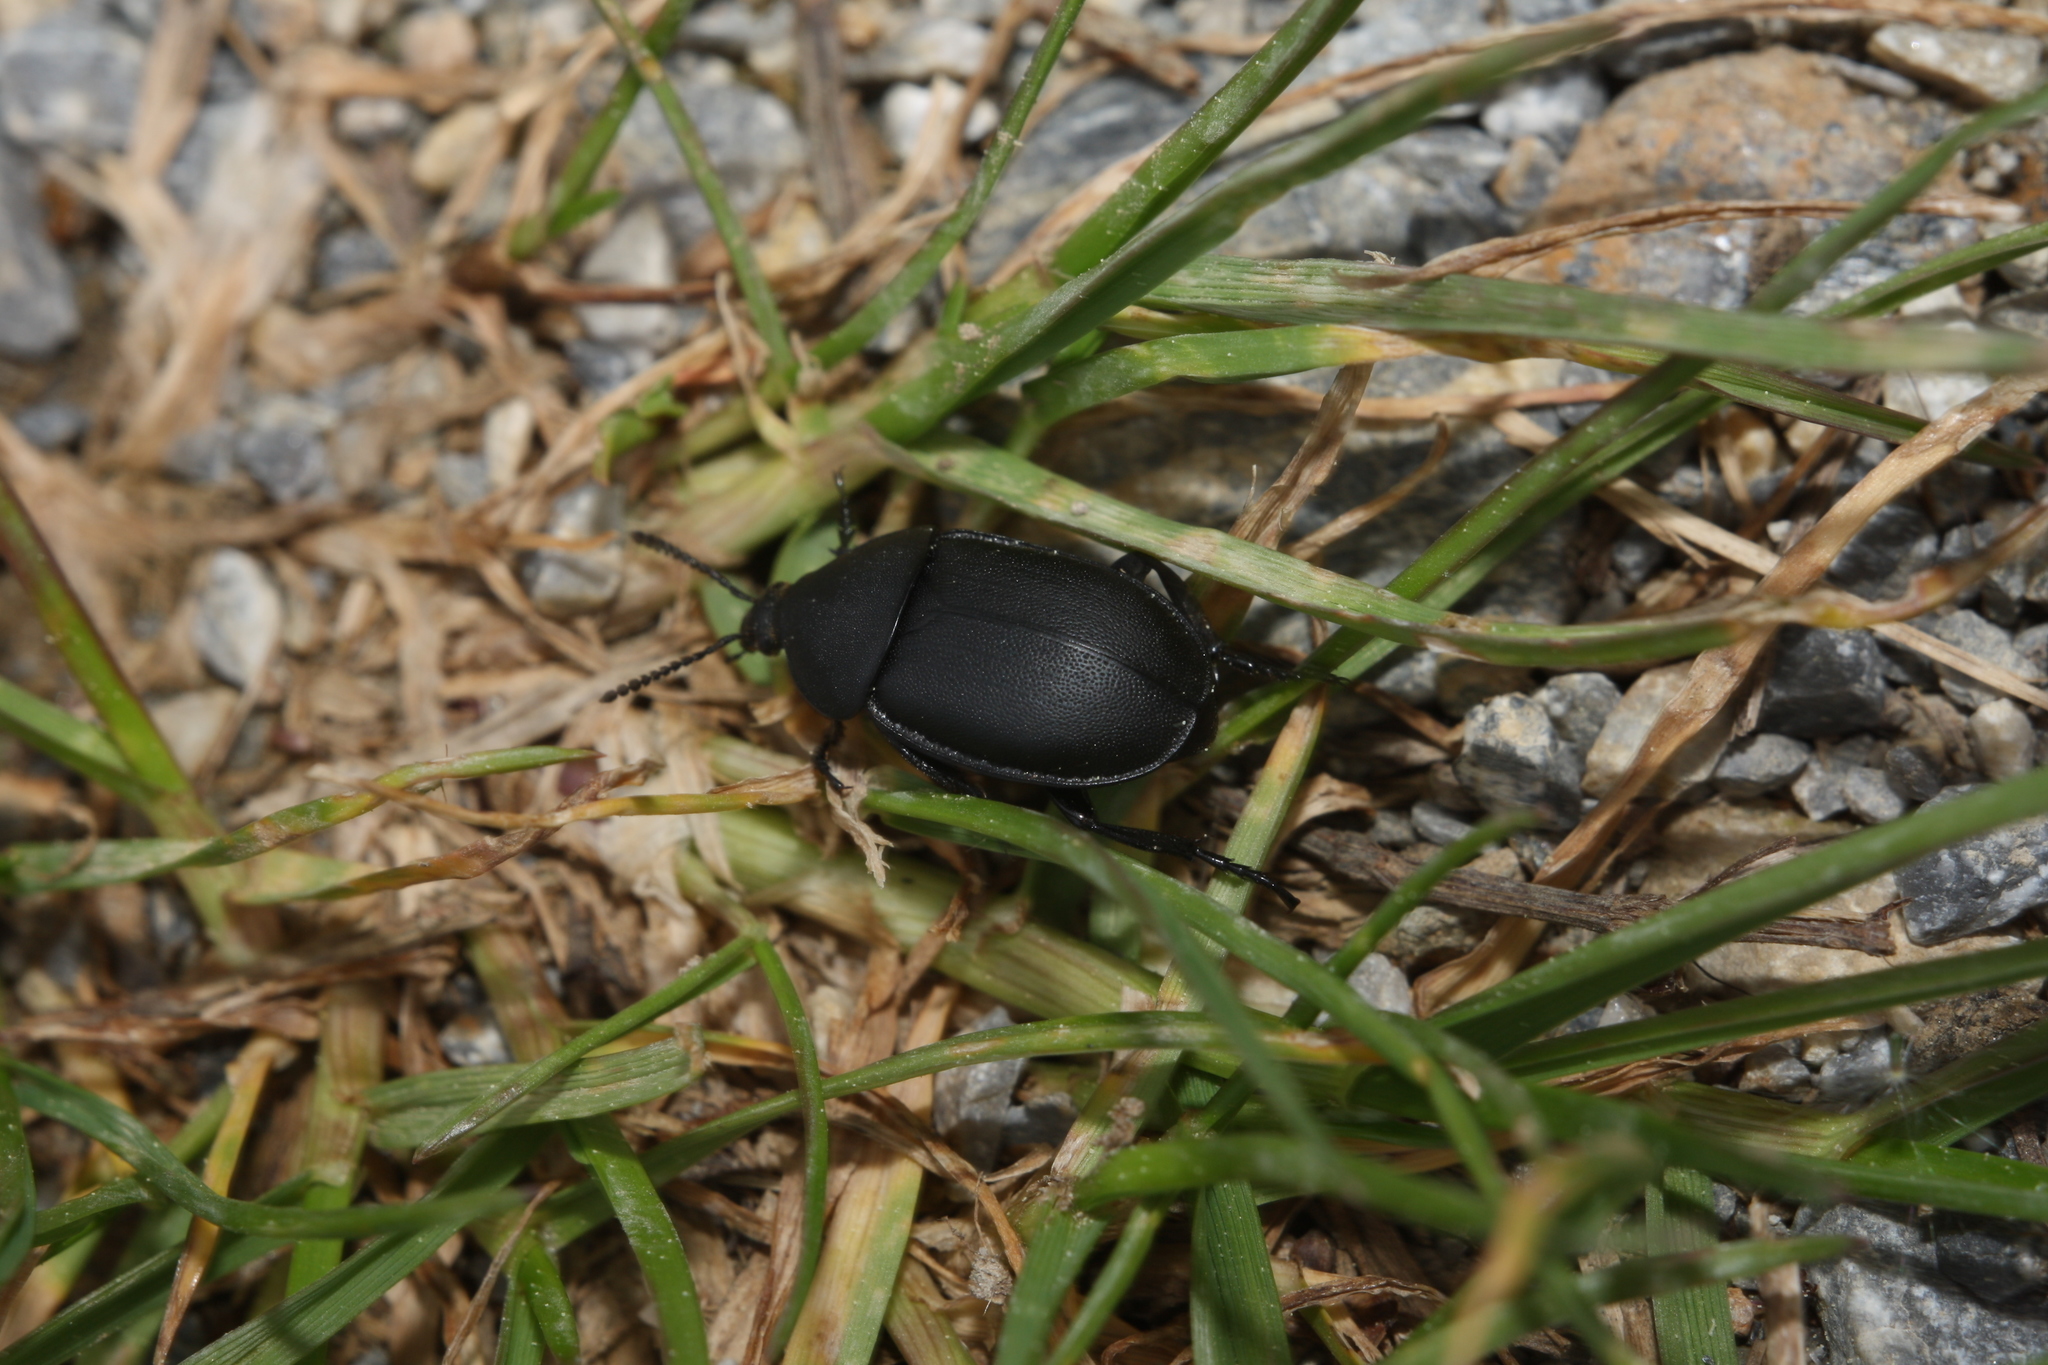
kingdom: Animalia
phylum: Arthropoda
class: Insecta
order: Coleoptera
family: Staphylinidae
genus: Silpha
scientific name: Silpha laevigata
